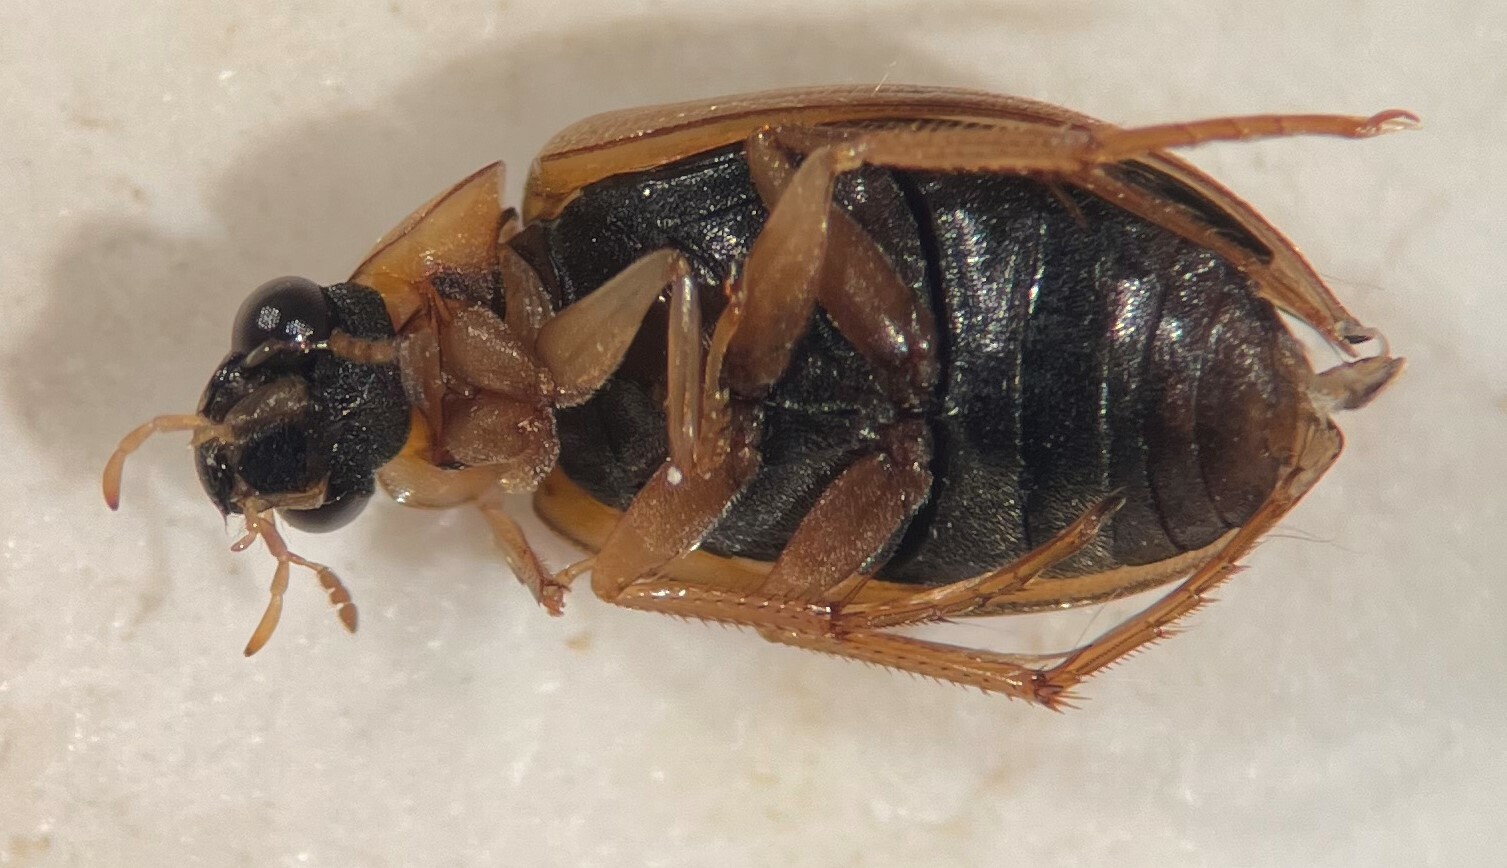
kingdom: Animalia
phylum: Arthropoda
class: Insecta
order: Coleoptera
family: Hydrophilidae
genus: Berosus
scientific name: Berosus stylifer
